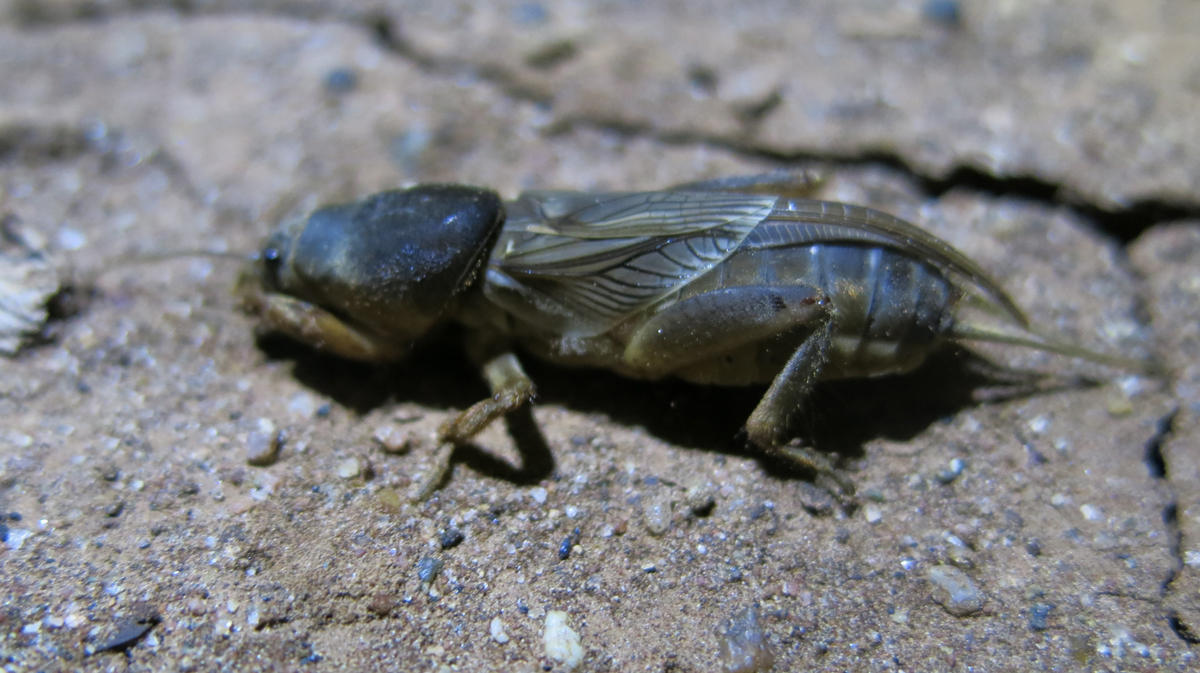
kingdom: Animalia
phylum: Arthropoda
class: Insecta
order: Orthoptera
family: Gryllotalpidae
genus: Gryllotalpa
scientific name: Gryllotalpa africana
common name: African mole cricket
